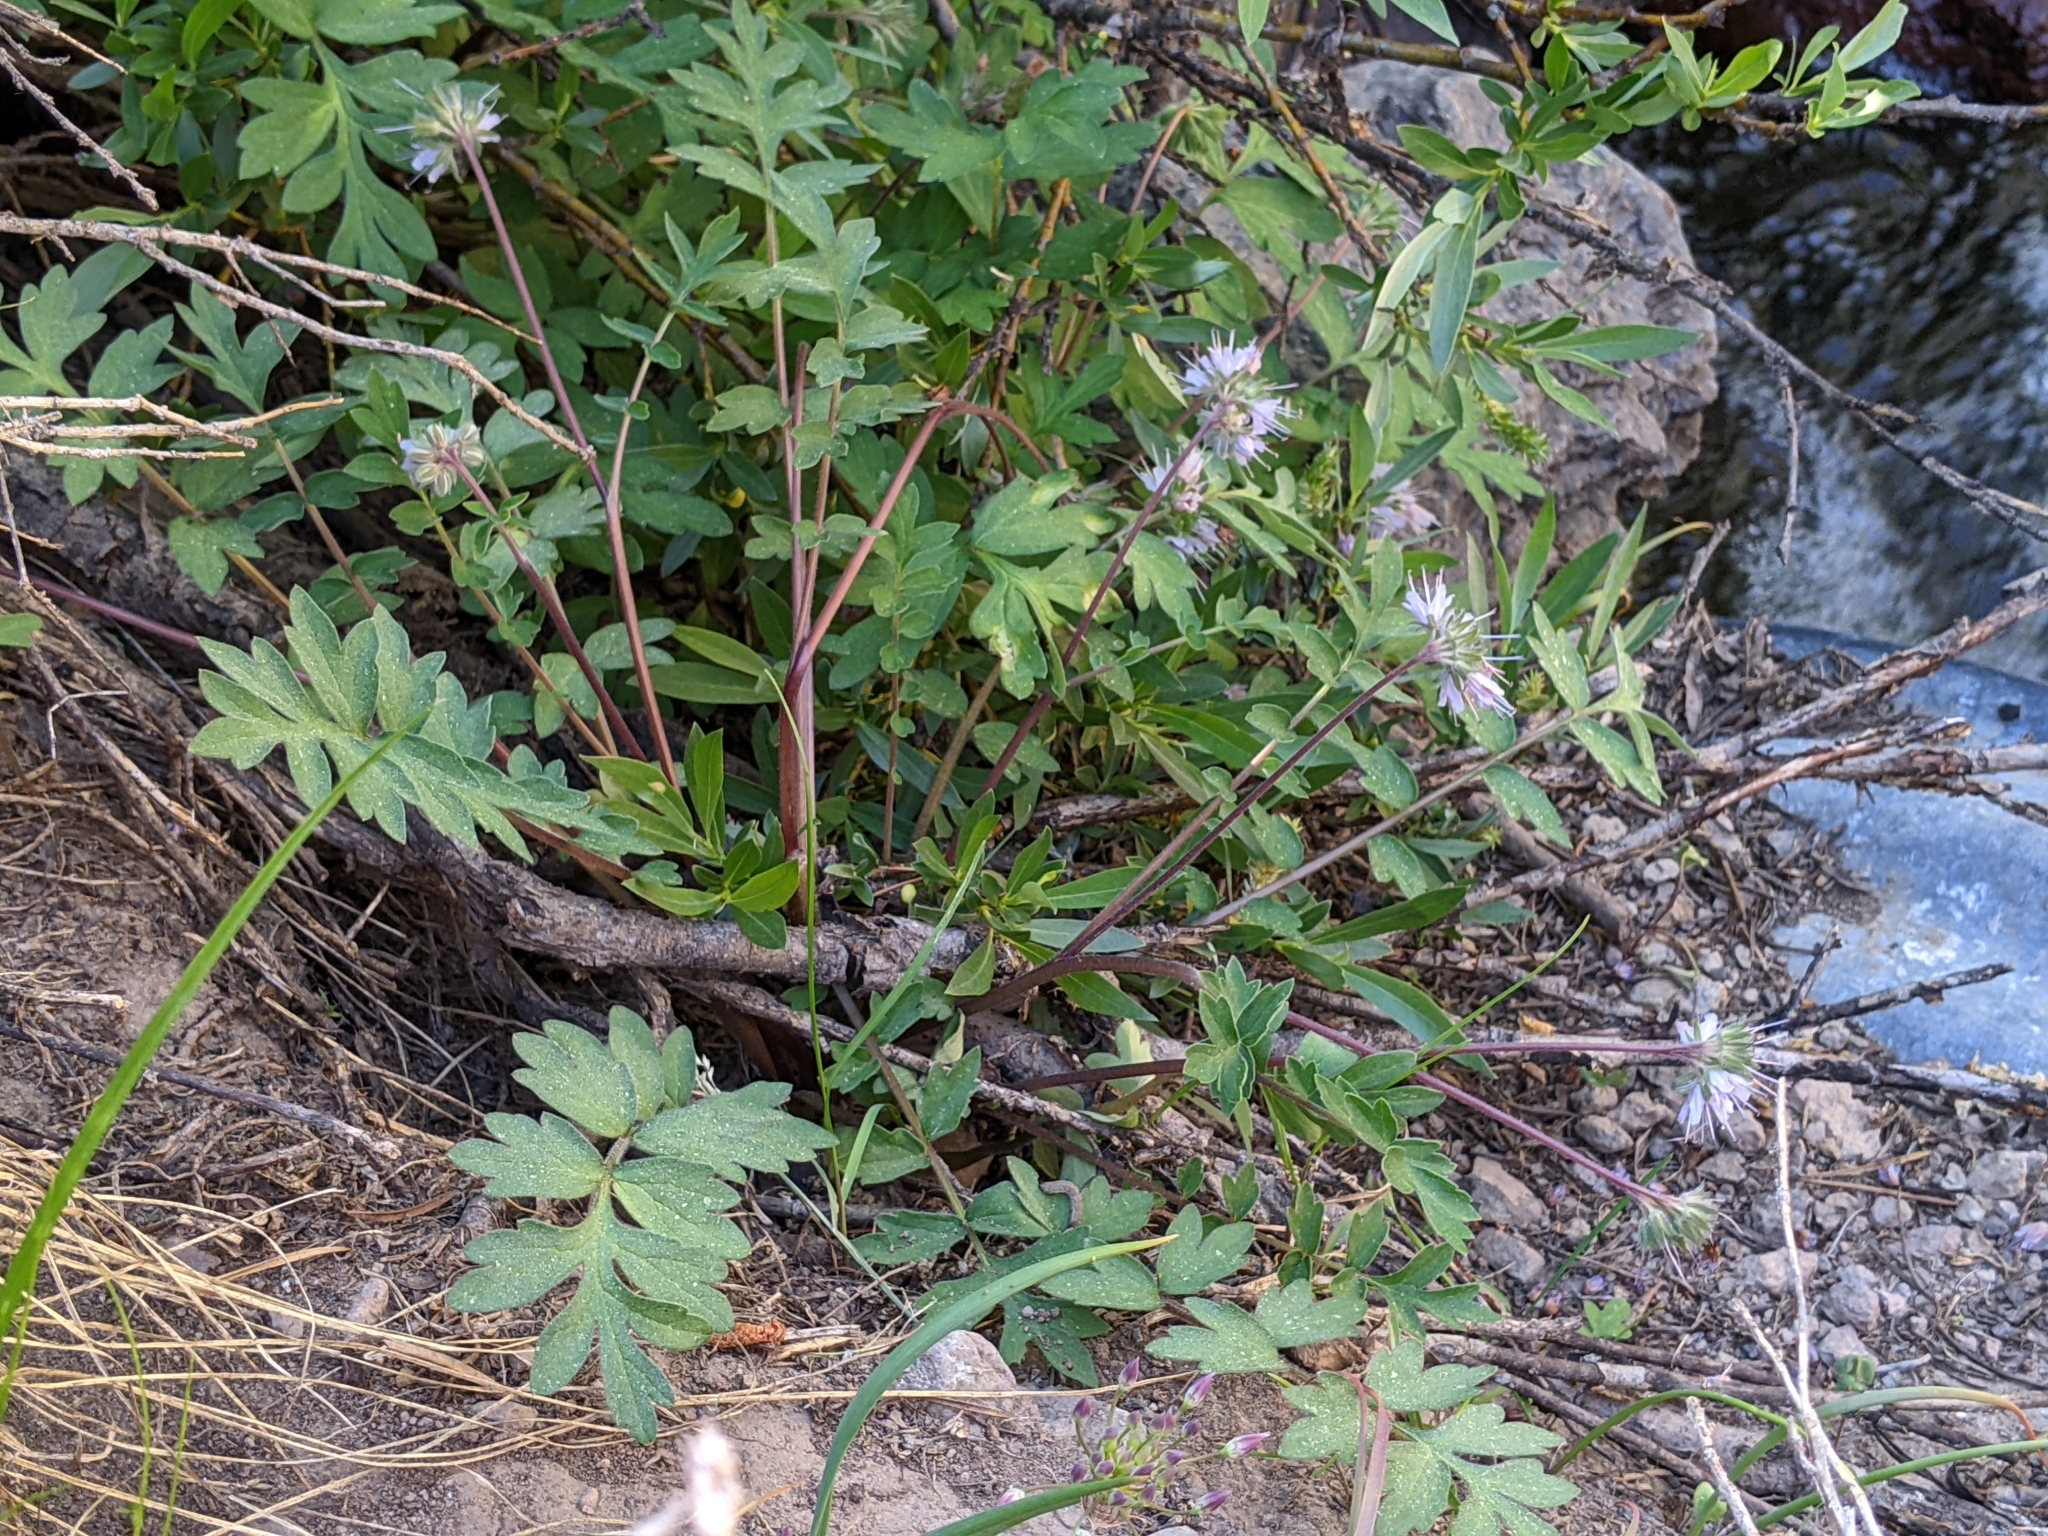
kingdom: Plantae
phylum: Tracheophyta
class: Magnoliopsida
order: Boraginales
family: Hydrophyllaceae
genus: Hydrophyllum
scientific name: Hydrophyllum occidentale
